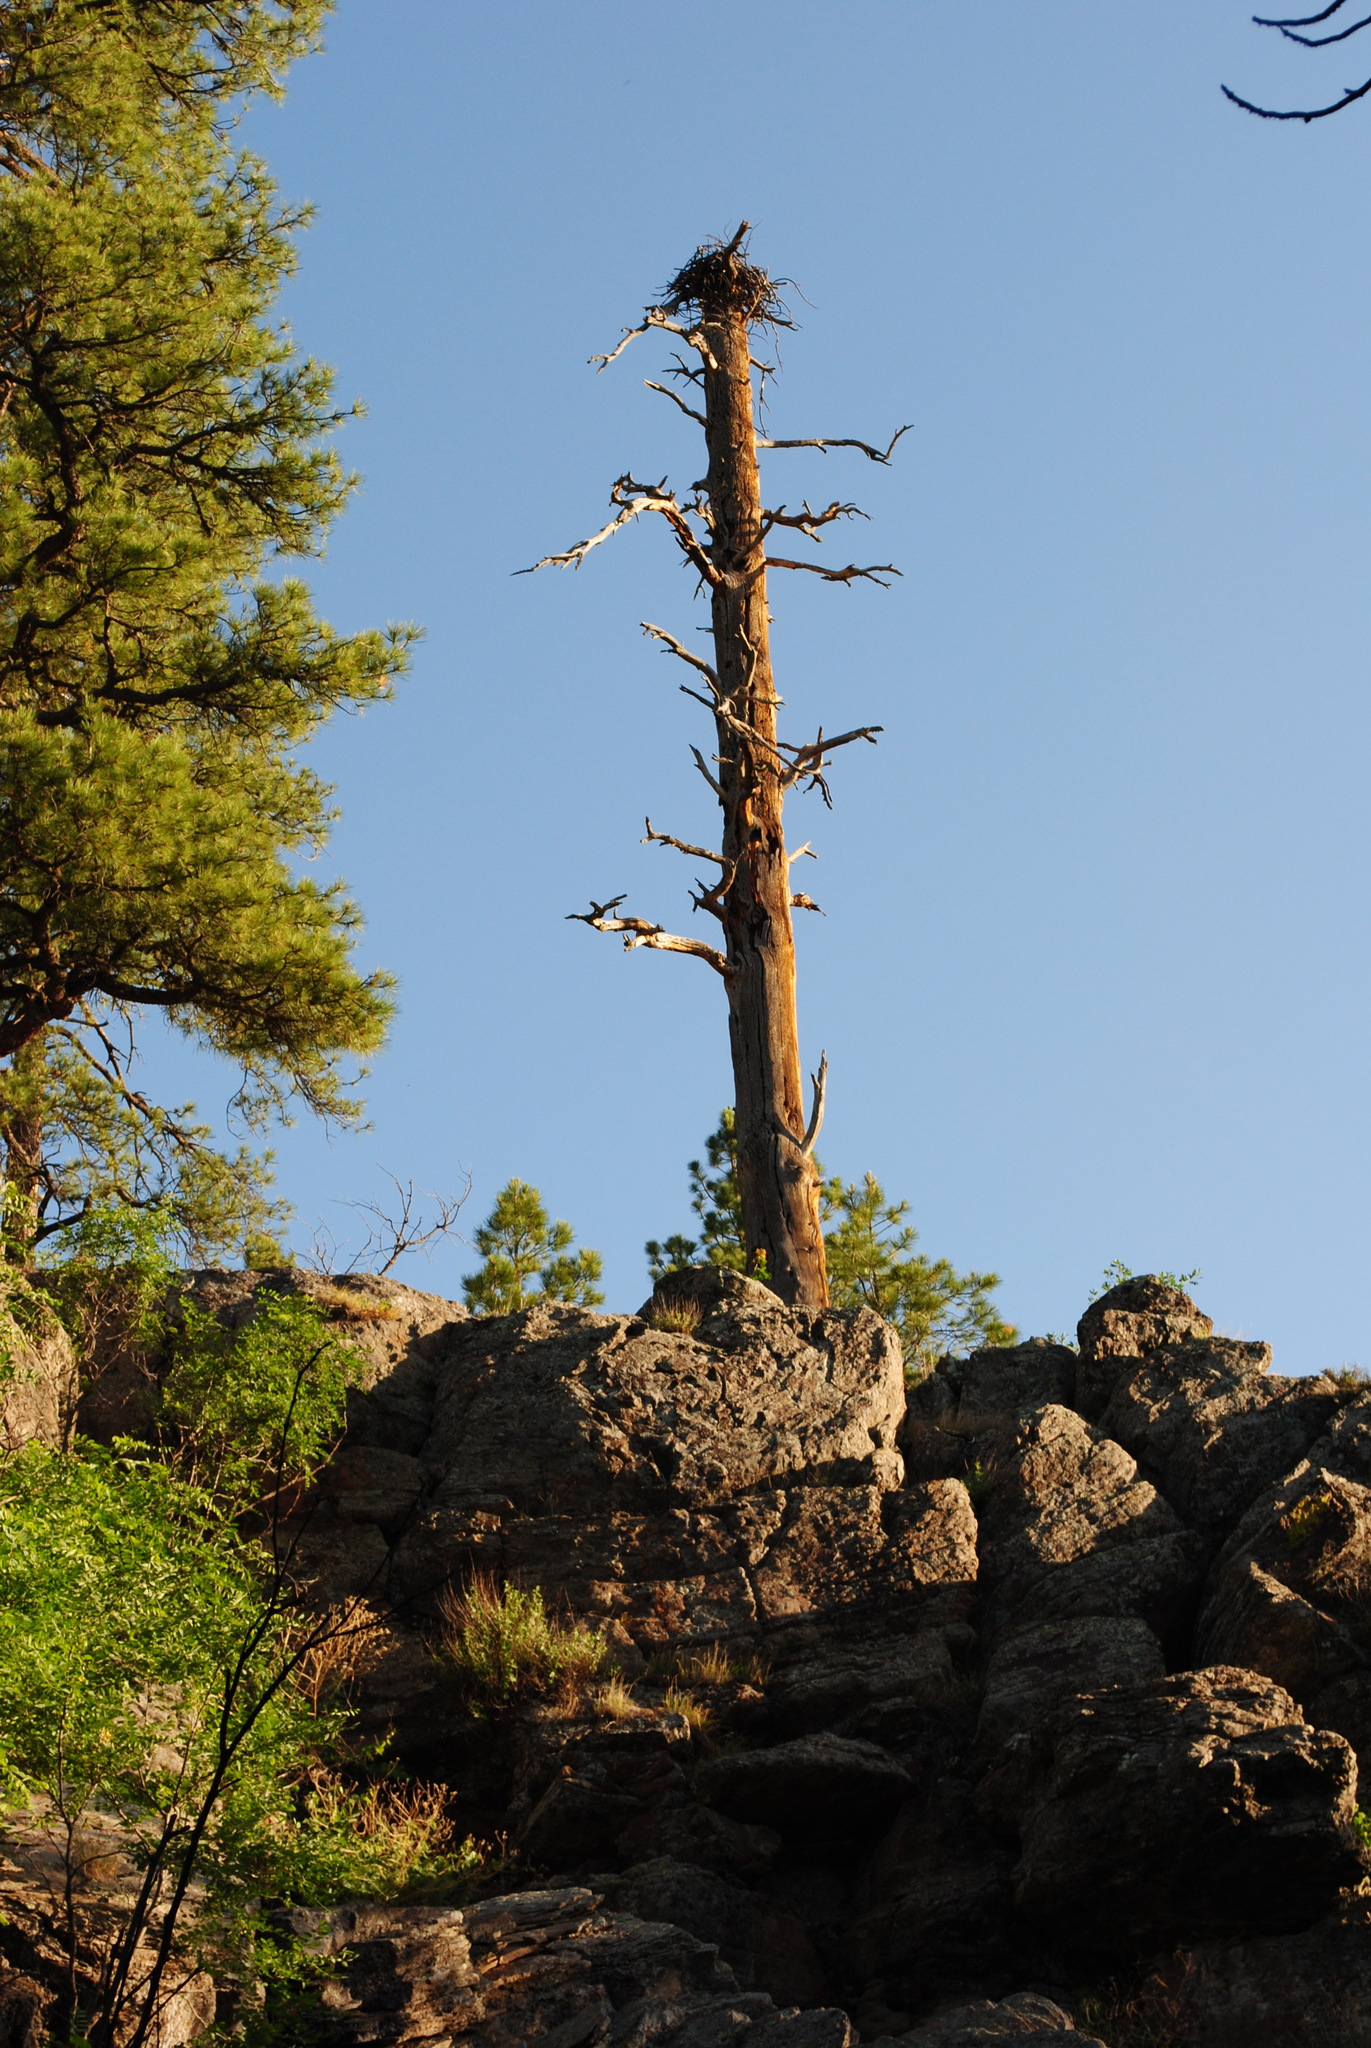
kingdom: Animalia
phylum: Chordata
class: Aves
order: Accipitriformes
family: Pandionidae
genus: Pandion
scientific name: Pandion haliaetus
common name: Osprey
